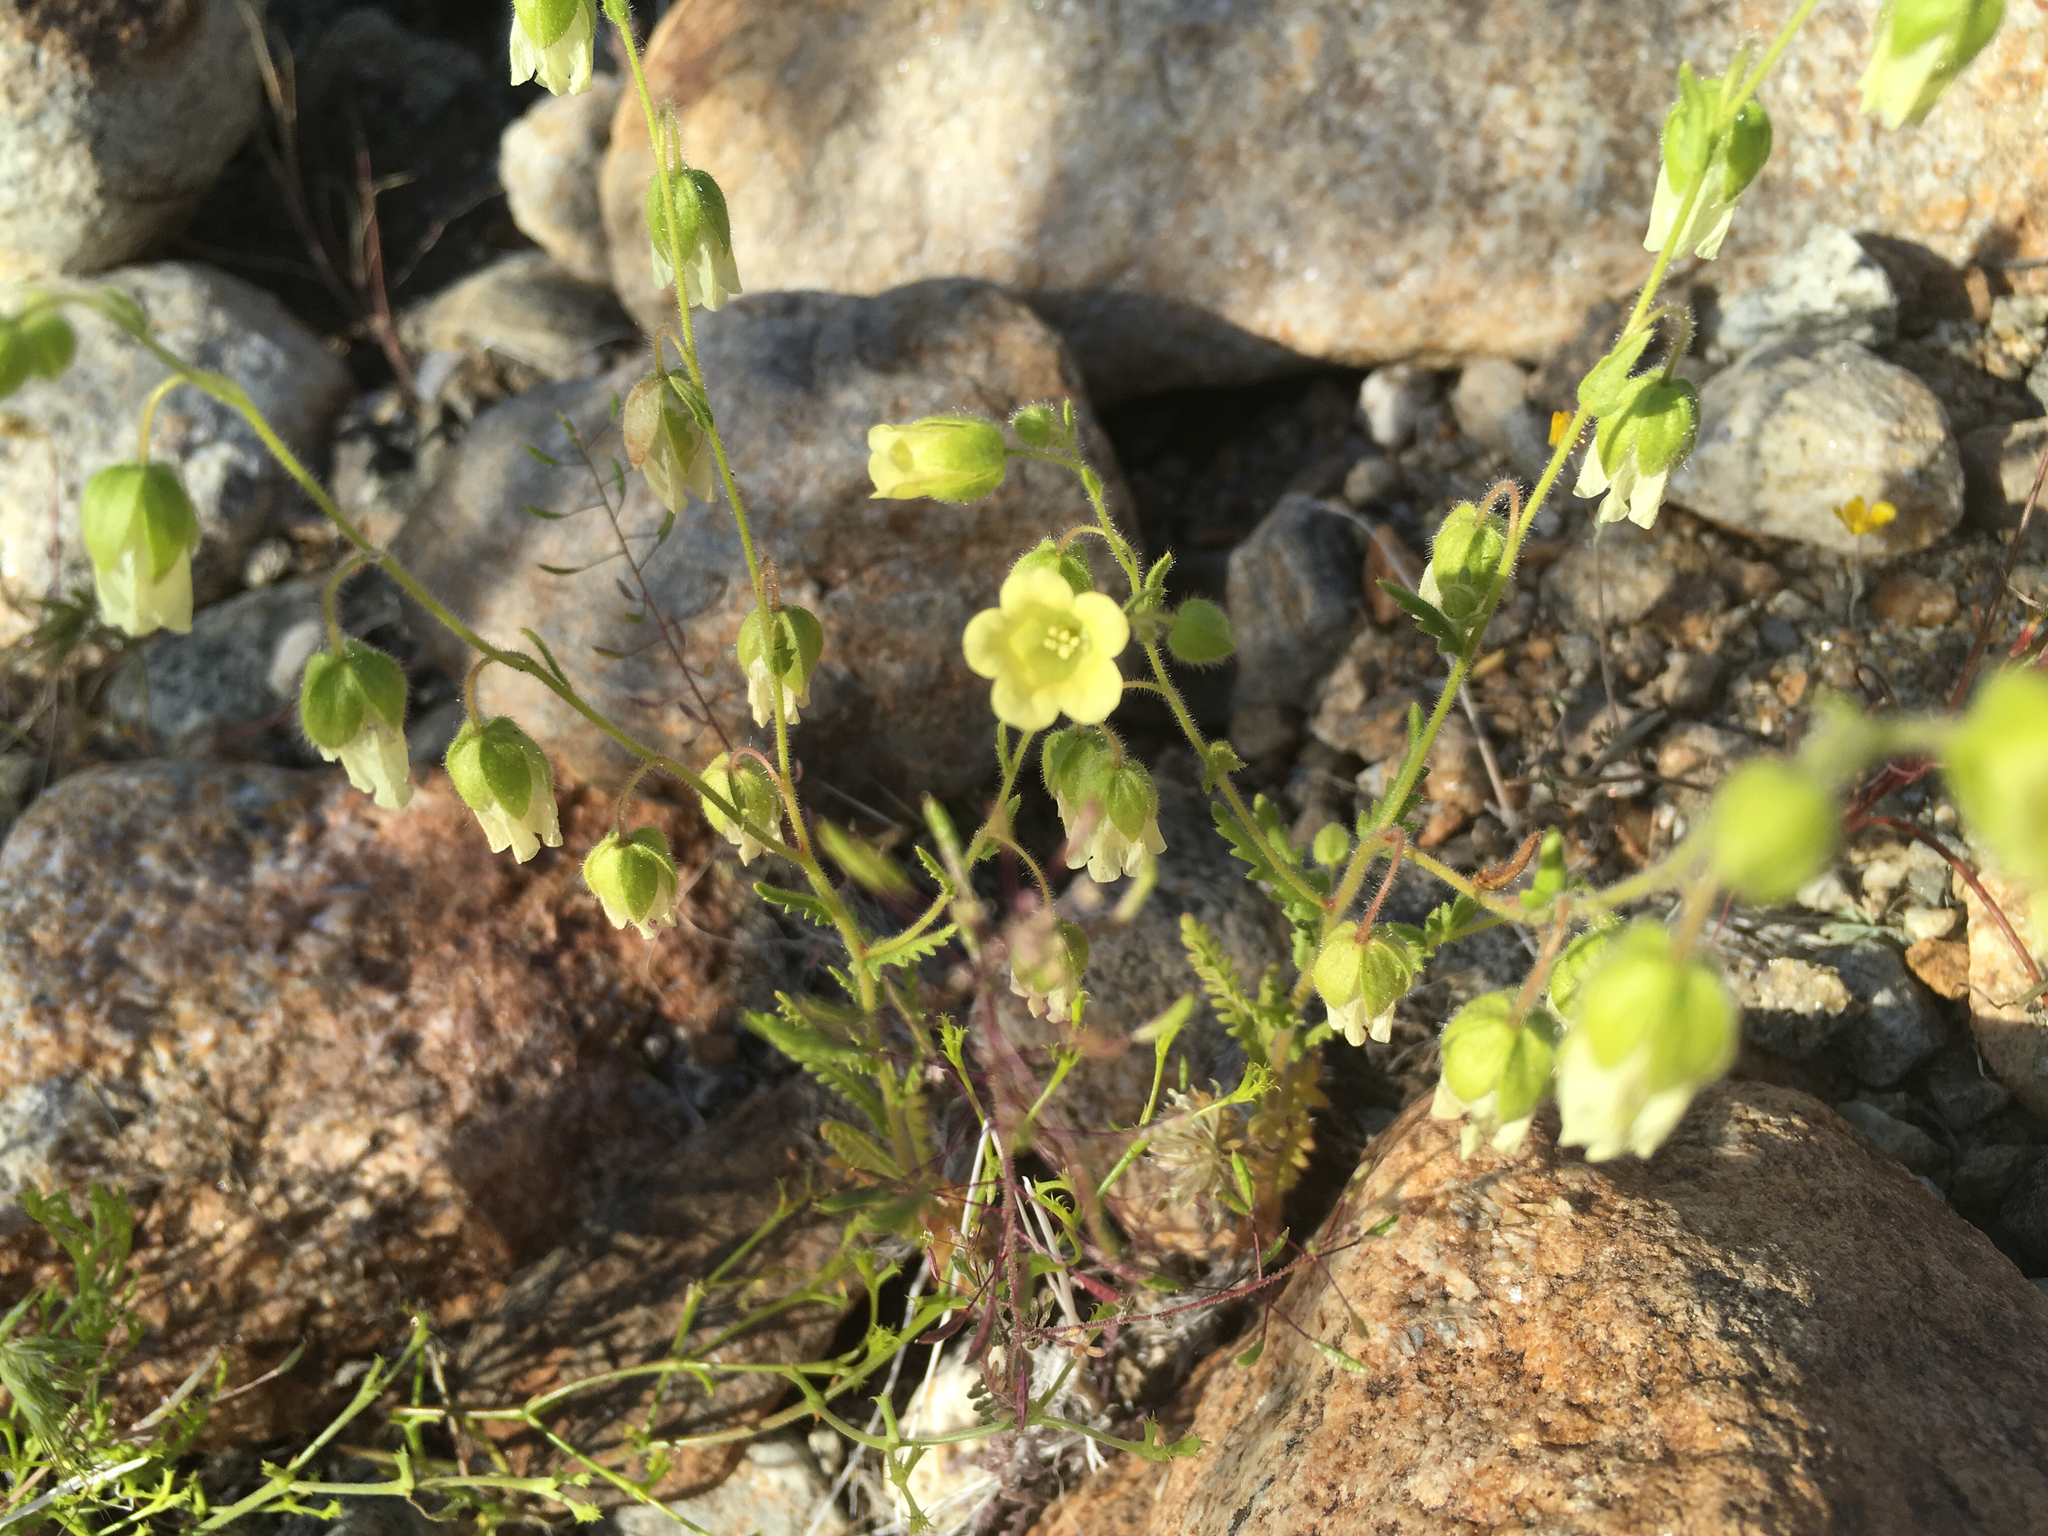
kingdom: Plantae
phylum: Tracheophyta
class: Magnoliopsida
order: Boraginales
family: Hydrophyllaceae
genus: Emmenanthe
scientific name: Emmenanthe penduliflora
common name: Whispering-bells
